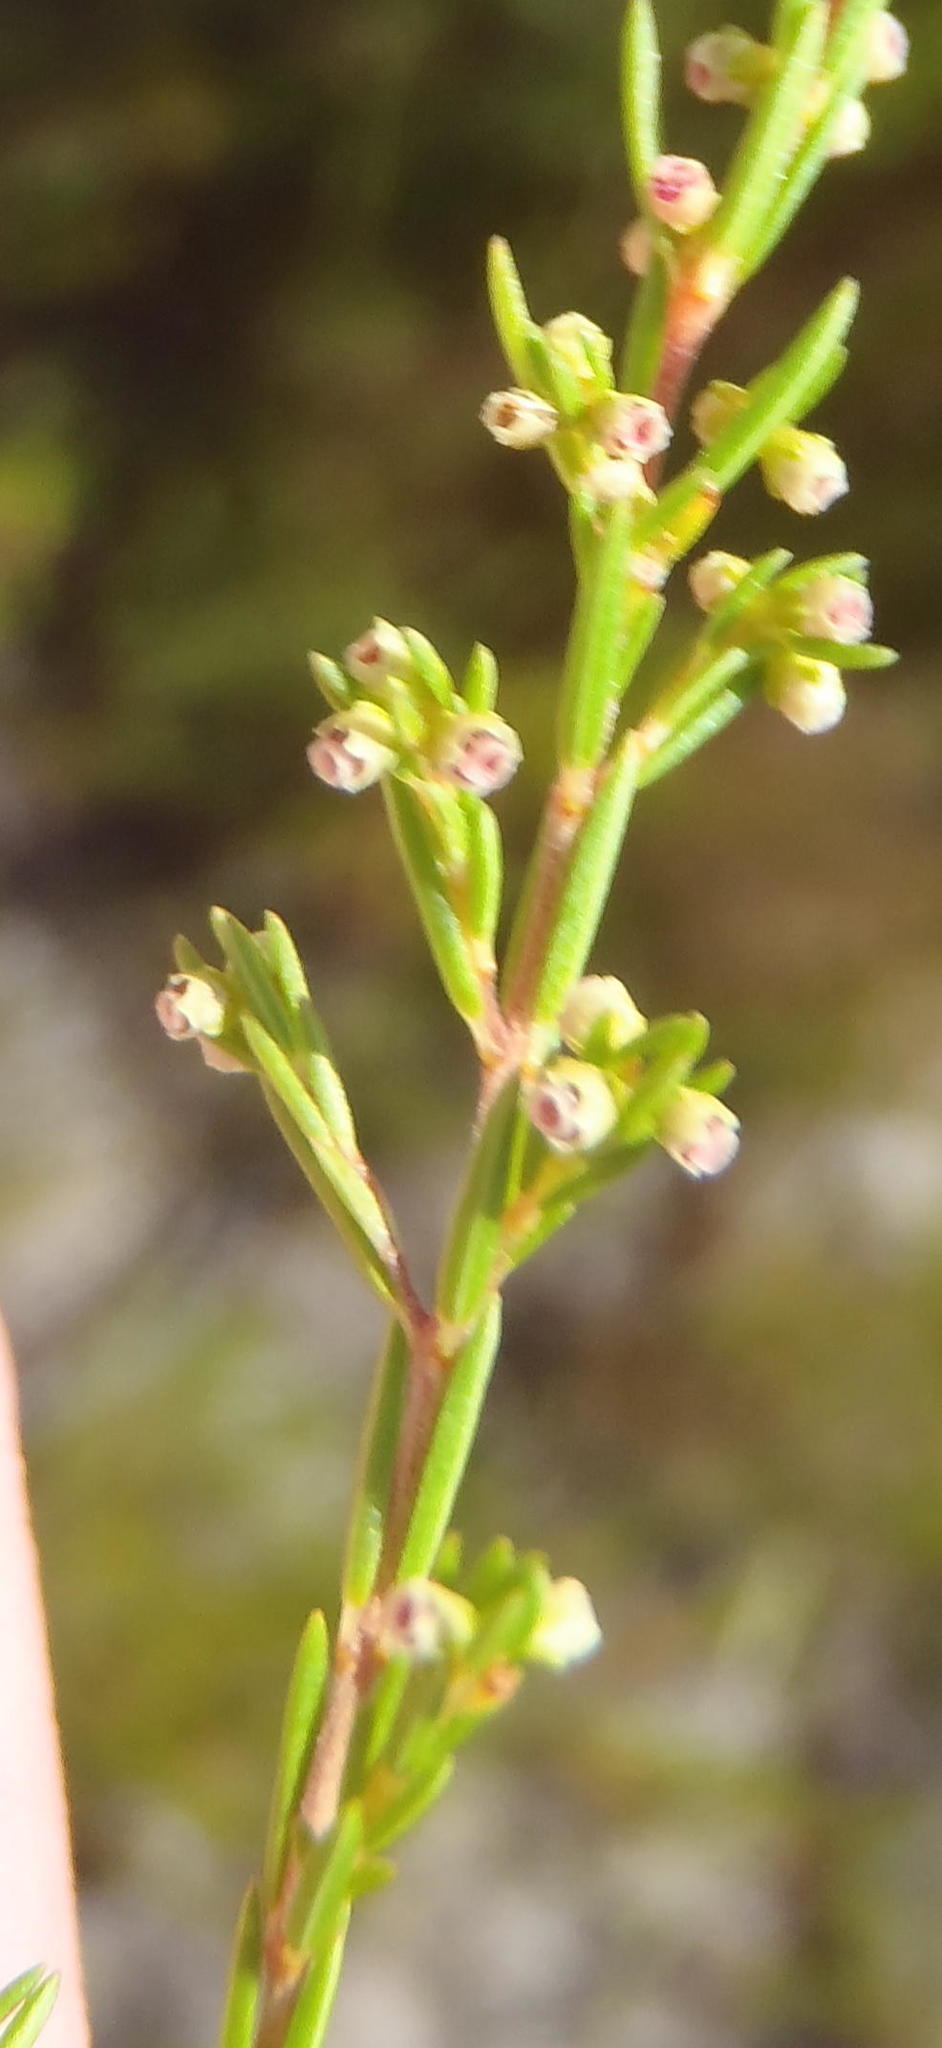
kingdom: Plantae
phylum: Tracheophyta
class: Magnoliopsida
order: Ericales
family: Ericaceae
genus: Erica
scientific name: Erica axillaris
